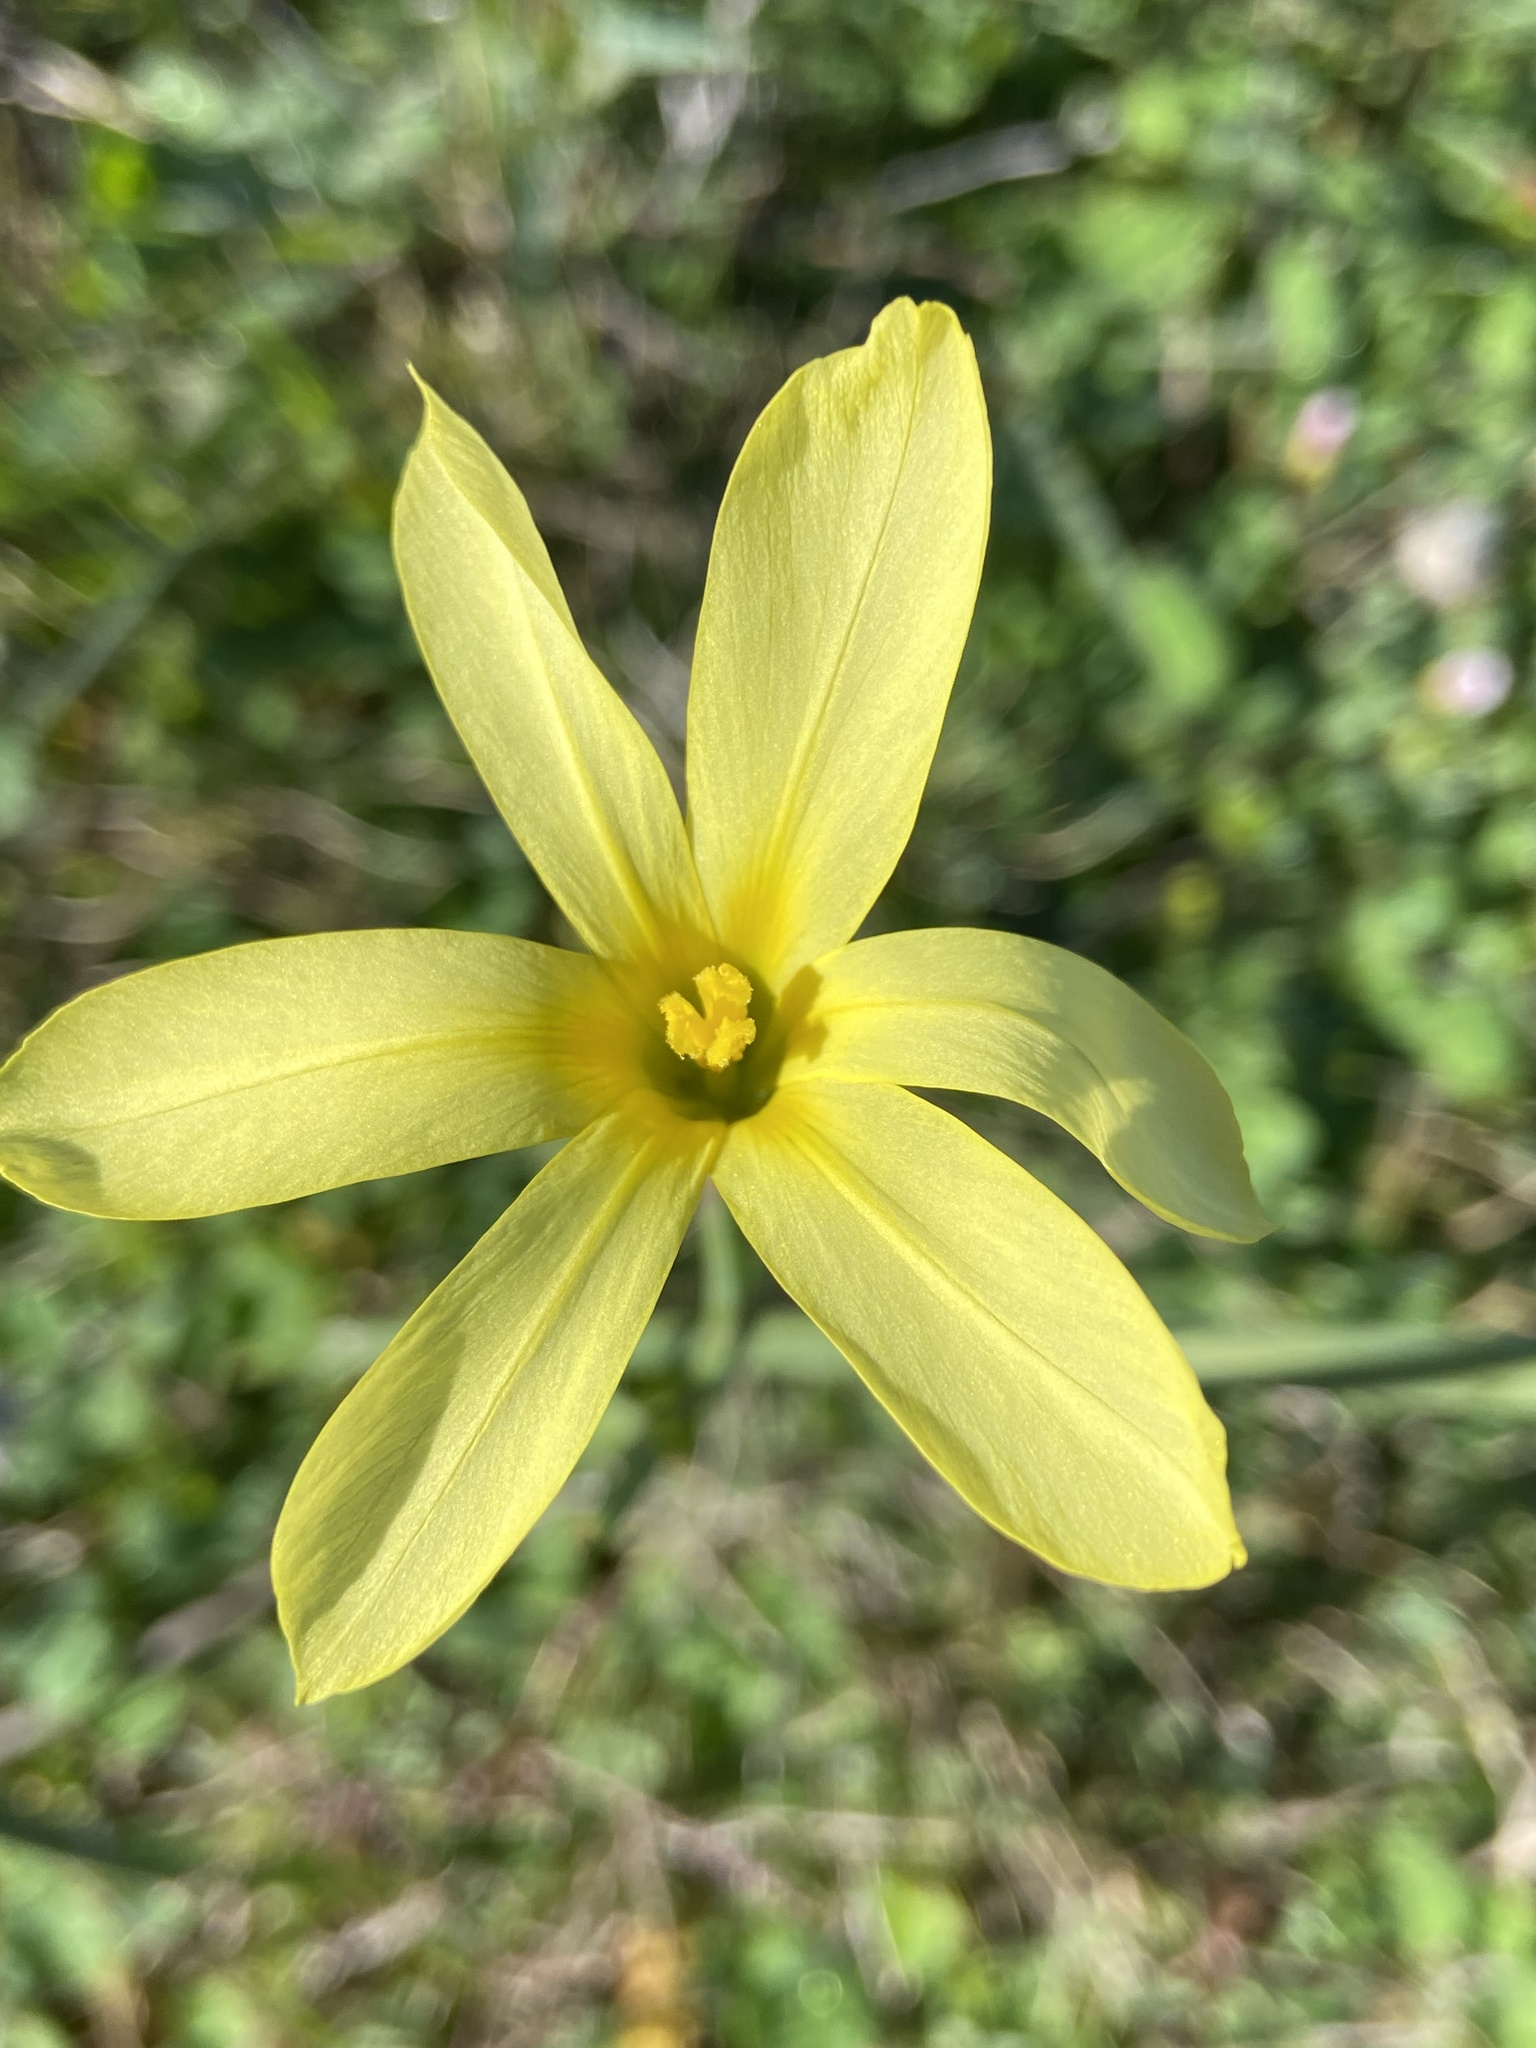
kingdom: Plantae
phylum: Tracheophyta
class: Liliopsida
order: Asparagales
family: Iridaceae
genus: Moraea
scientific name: Moraea collina
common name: Cape-tulip
